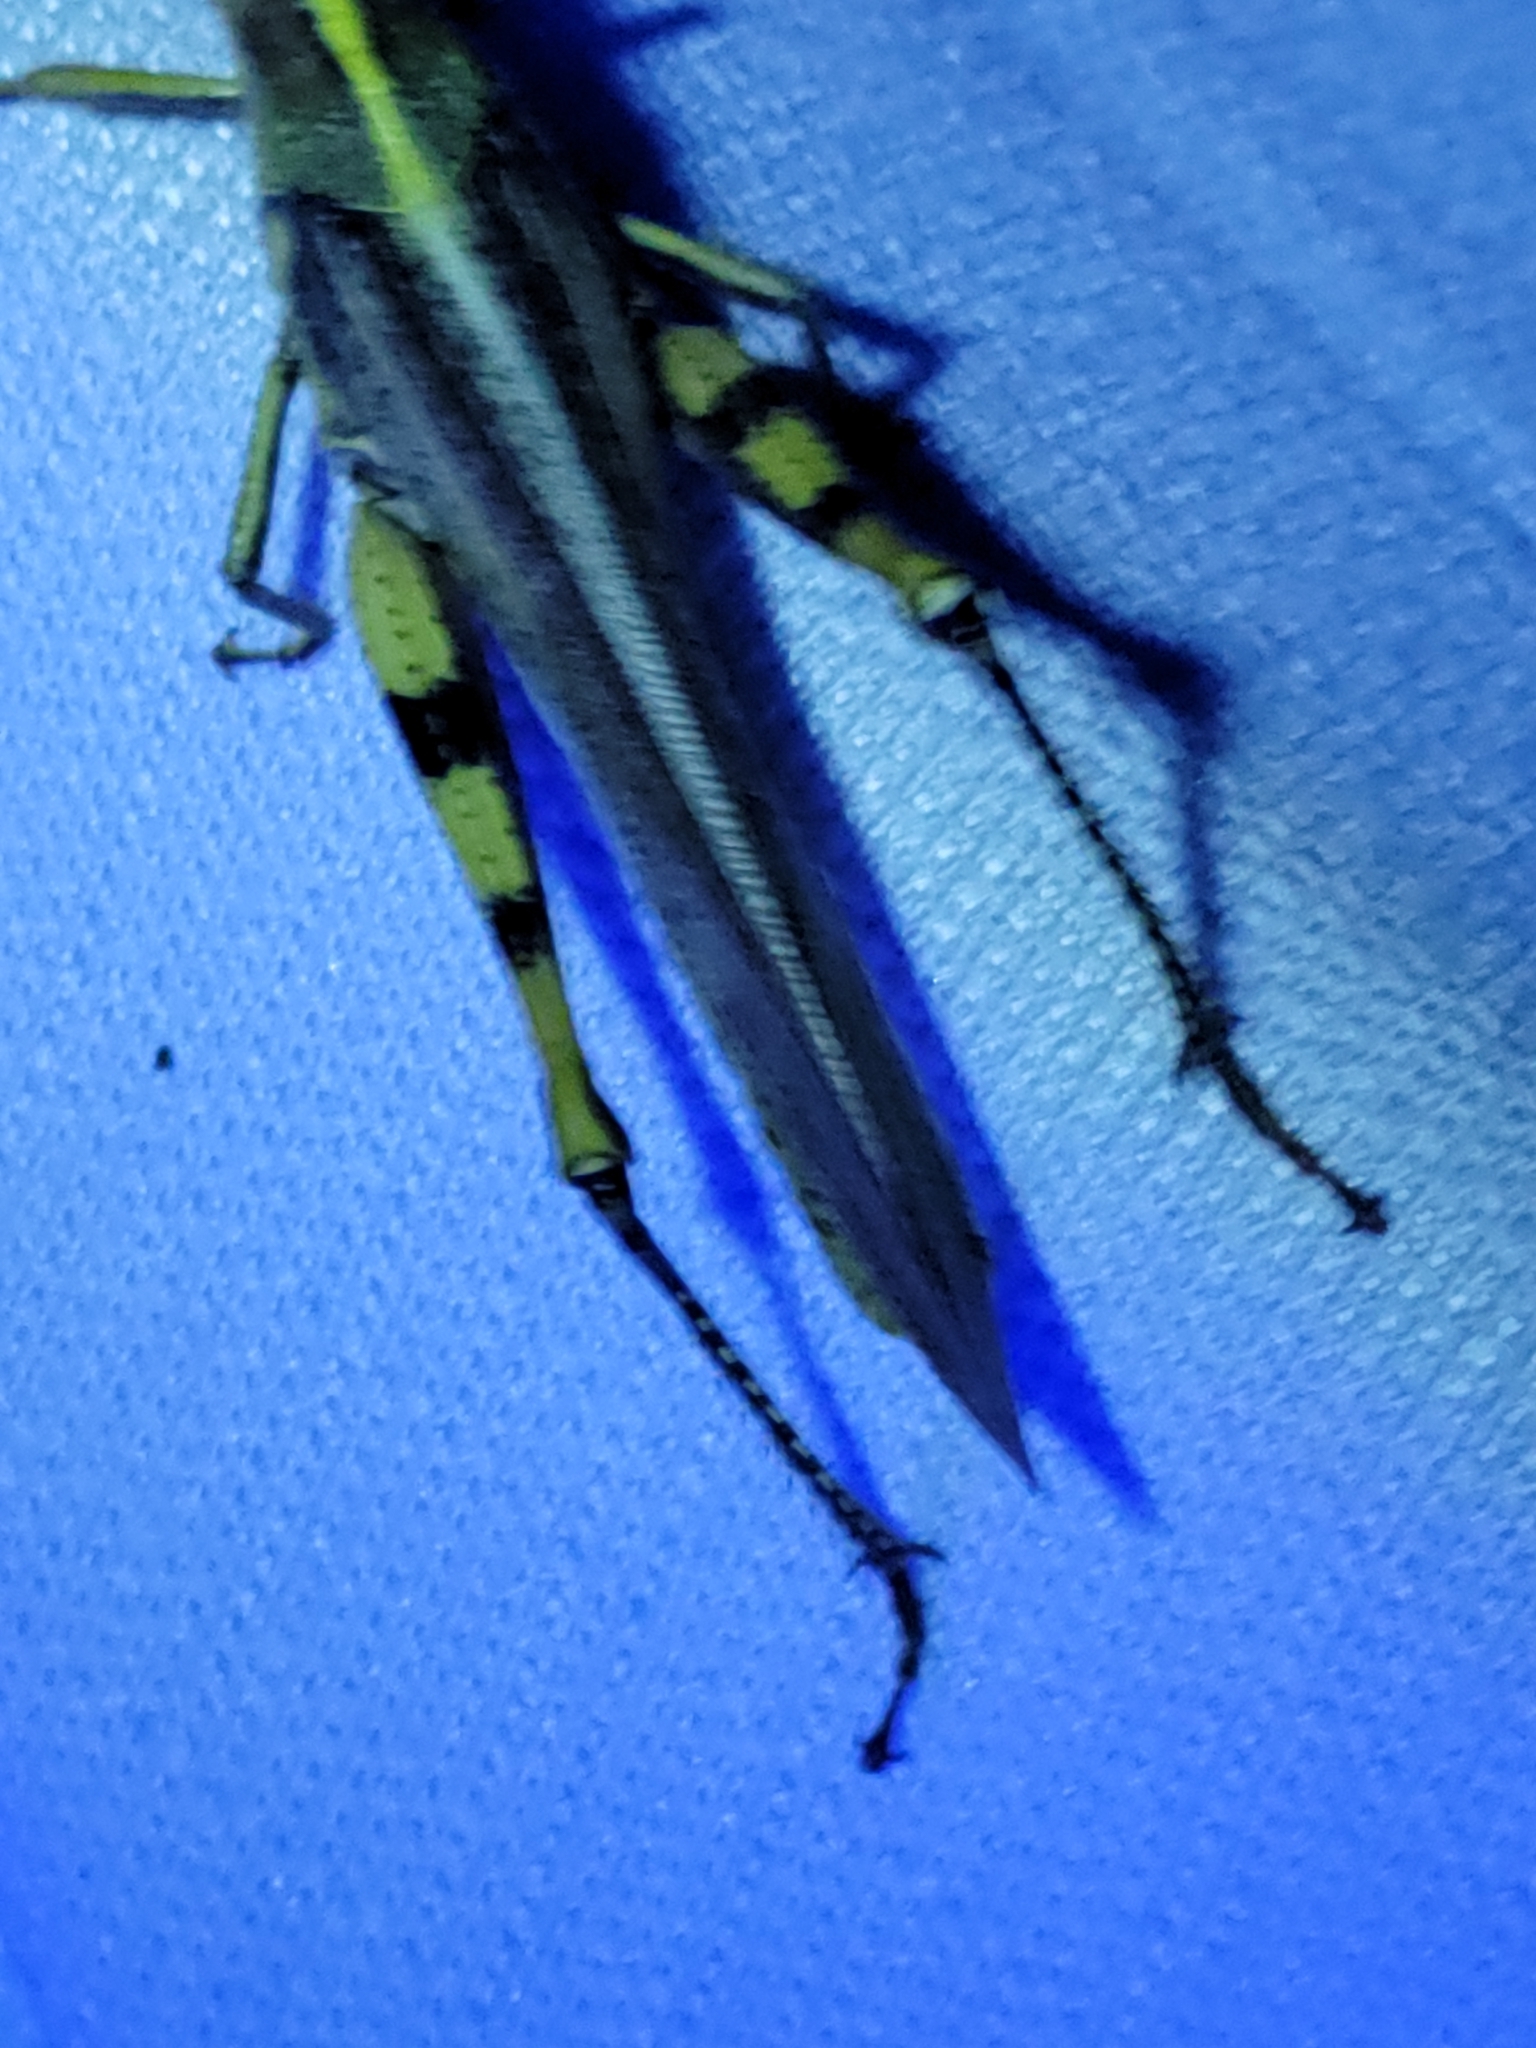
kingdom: Animalia
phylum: Arthropoda
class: Insecta
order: Orthoptera
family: Acrididae
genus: Schistocerca
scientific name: Schistocerca obscura
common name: Obscure bird grasshopper
